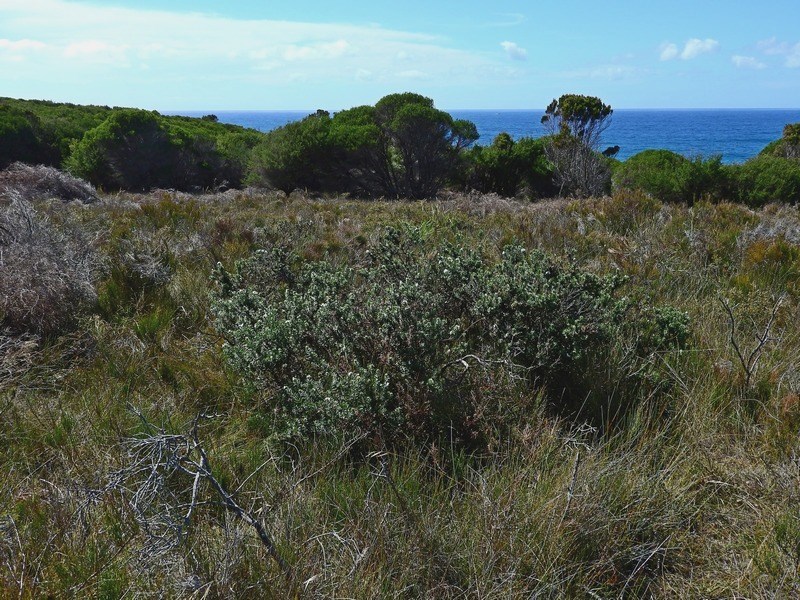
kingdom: Plantae
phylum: Tracheophyta
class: Magnoliopsida
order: Lamiales
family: Lamiaceae
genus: Westringia
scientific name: Westringia fruticosa
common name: Coastal-rosemary
